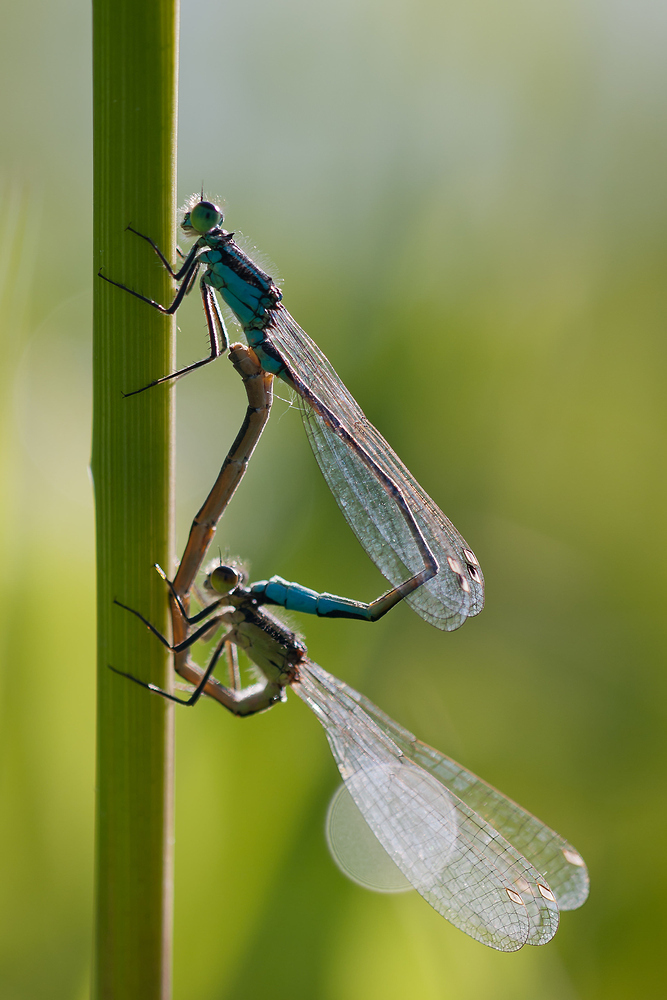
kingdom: Animalia
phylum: Arthropoda
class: Insecta
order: Odonata
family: Coenagrionidae
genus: Ischnura
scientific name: Ischnura elegans
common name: Blue-tailed damselfly
